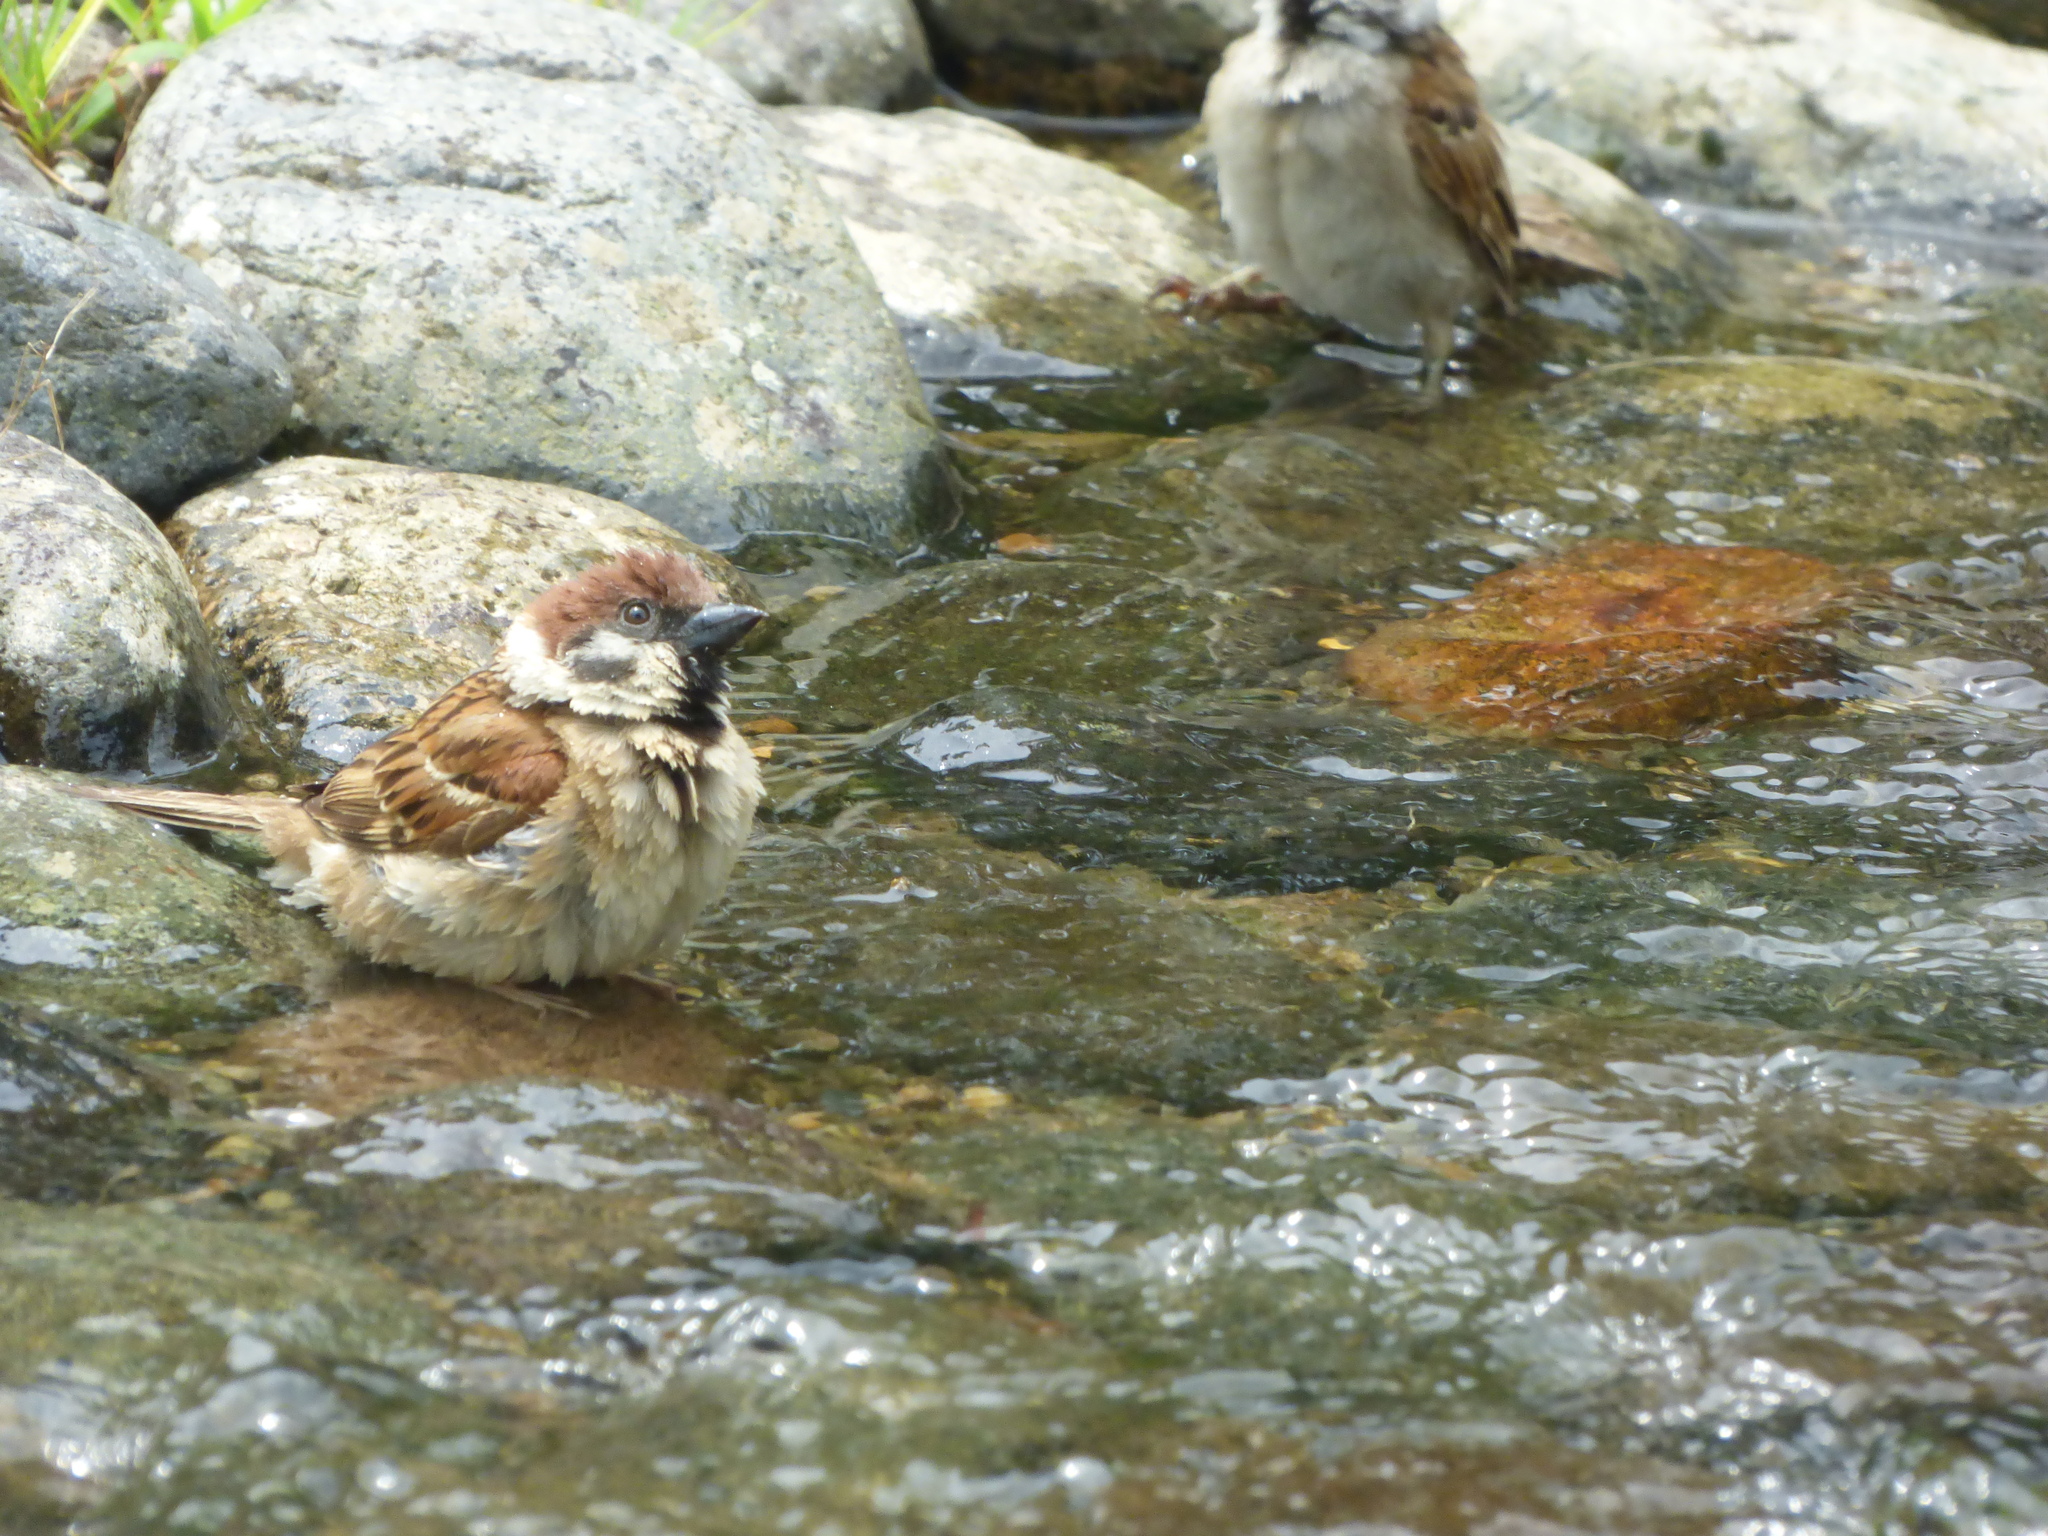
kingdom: Animalia
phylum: Chordata
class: Aves
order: Passeriformes
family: Passeridae
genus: Passer
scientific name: Passer montanus
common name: Eurasian tree sparrow
